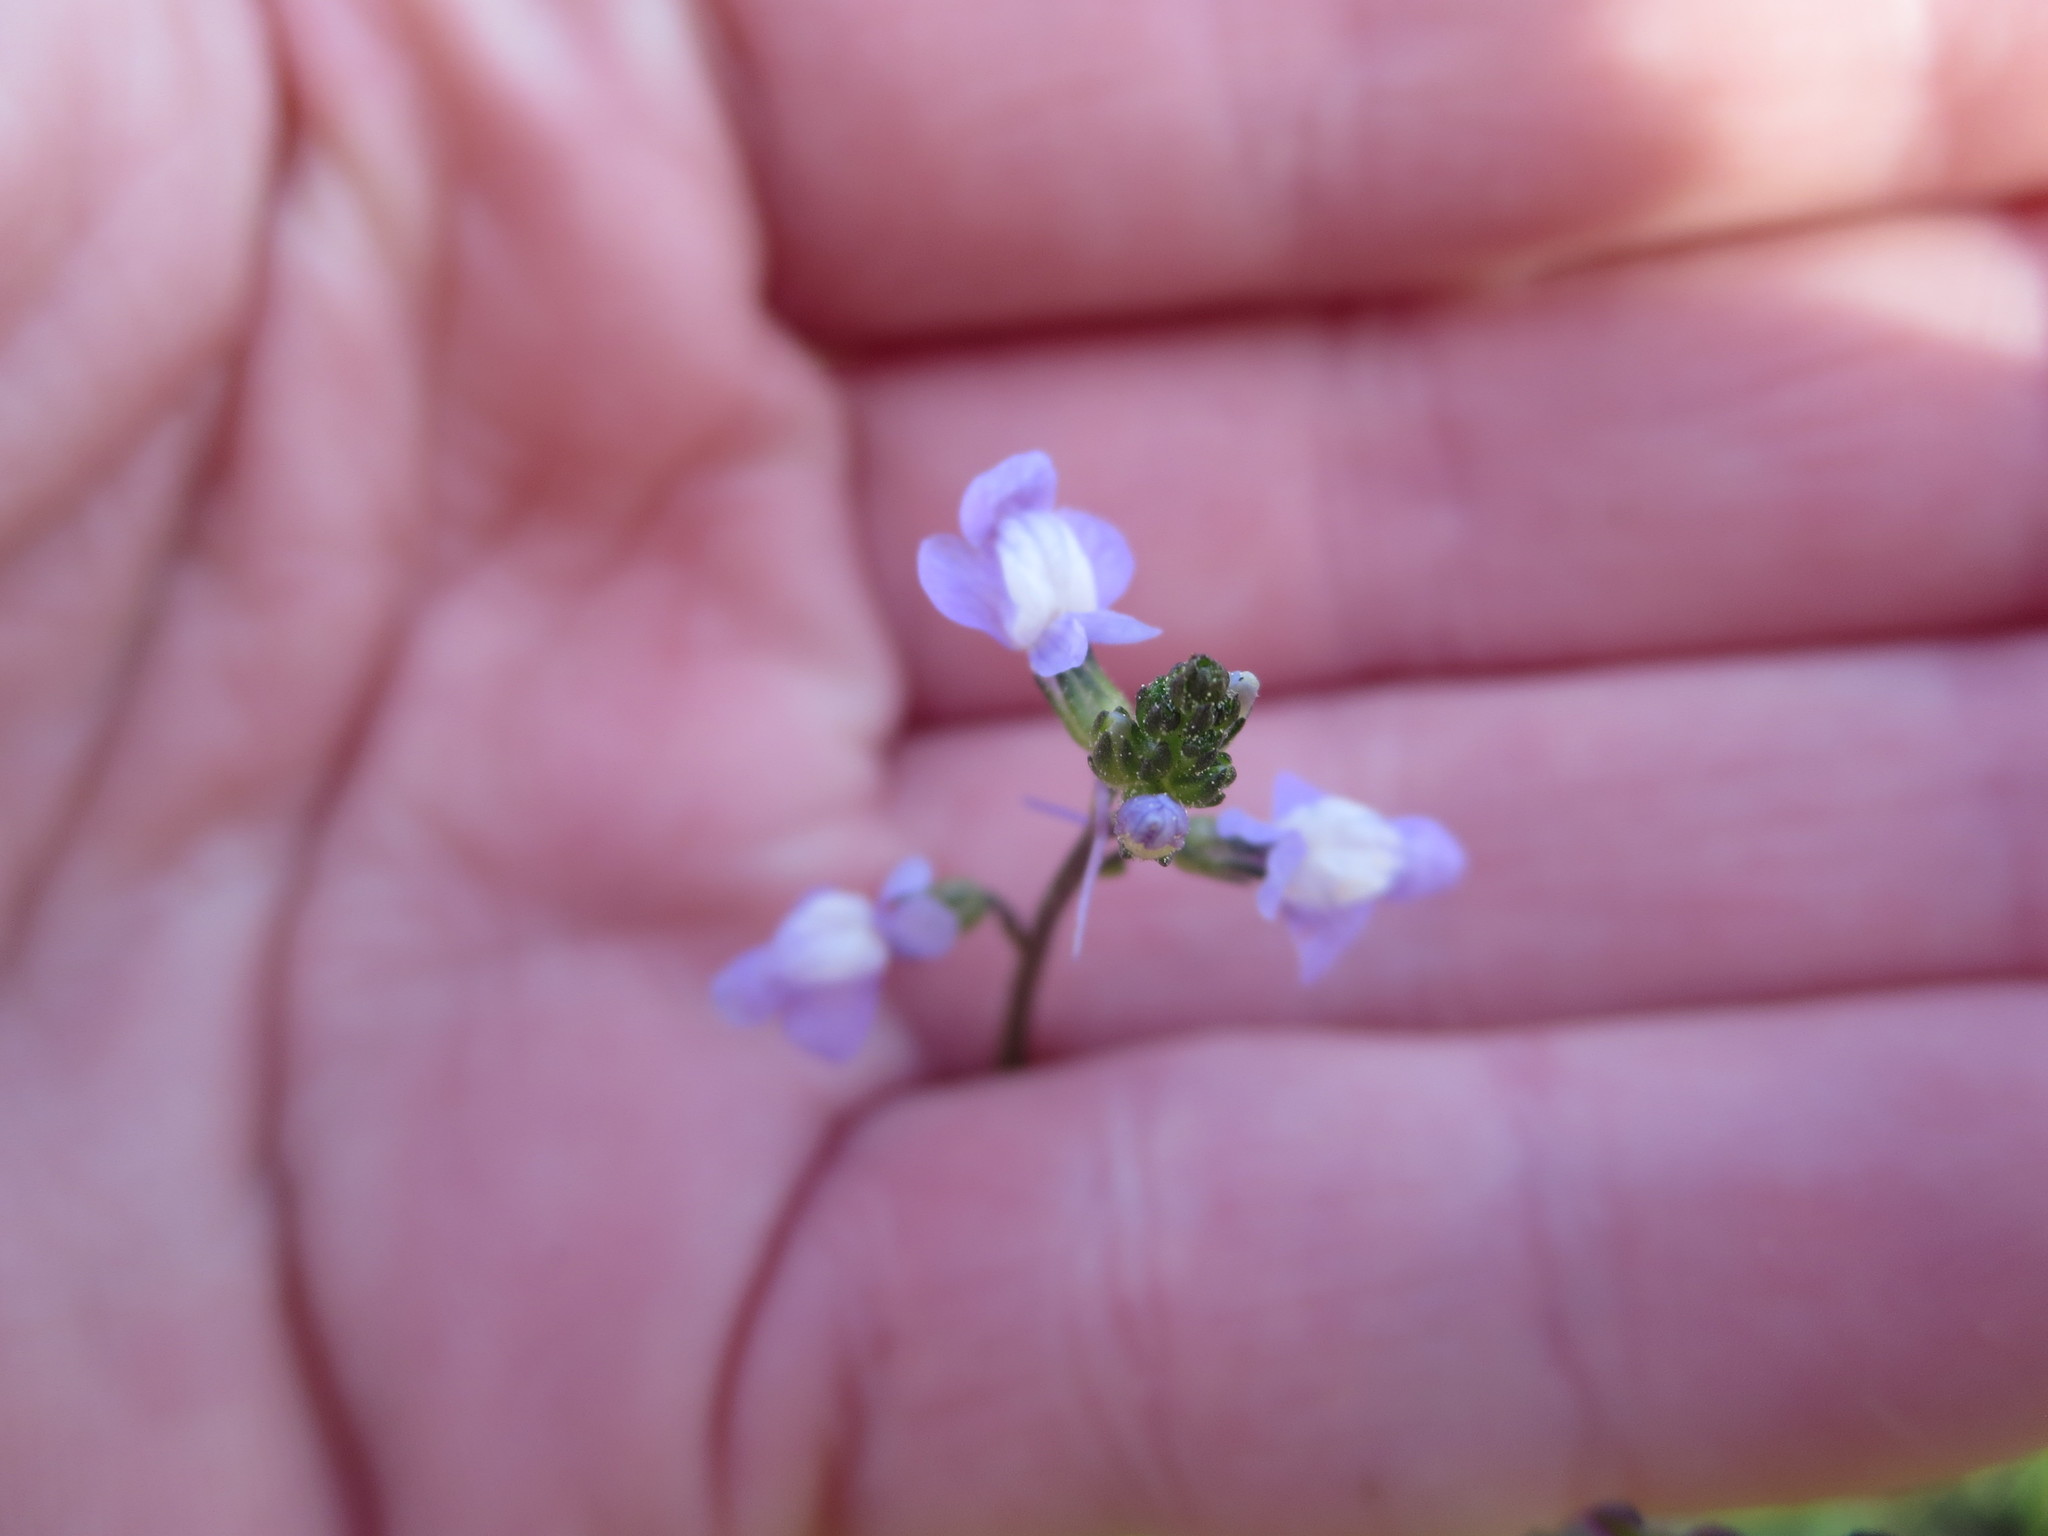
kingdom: Plantae
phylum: Tracheophyta
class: Magnoliopsida
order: Lamiales
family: Plantaginaceae
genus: Nuttallanthus
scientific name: Nuttallanthus canadensis
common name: Blue toadflax
